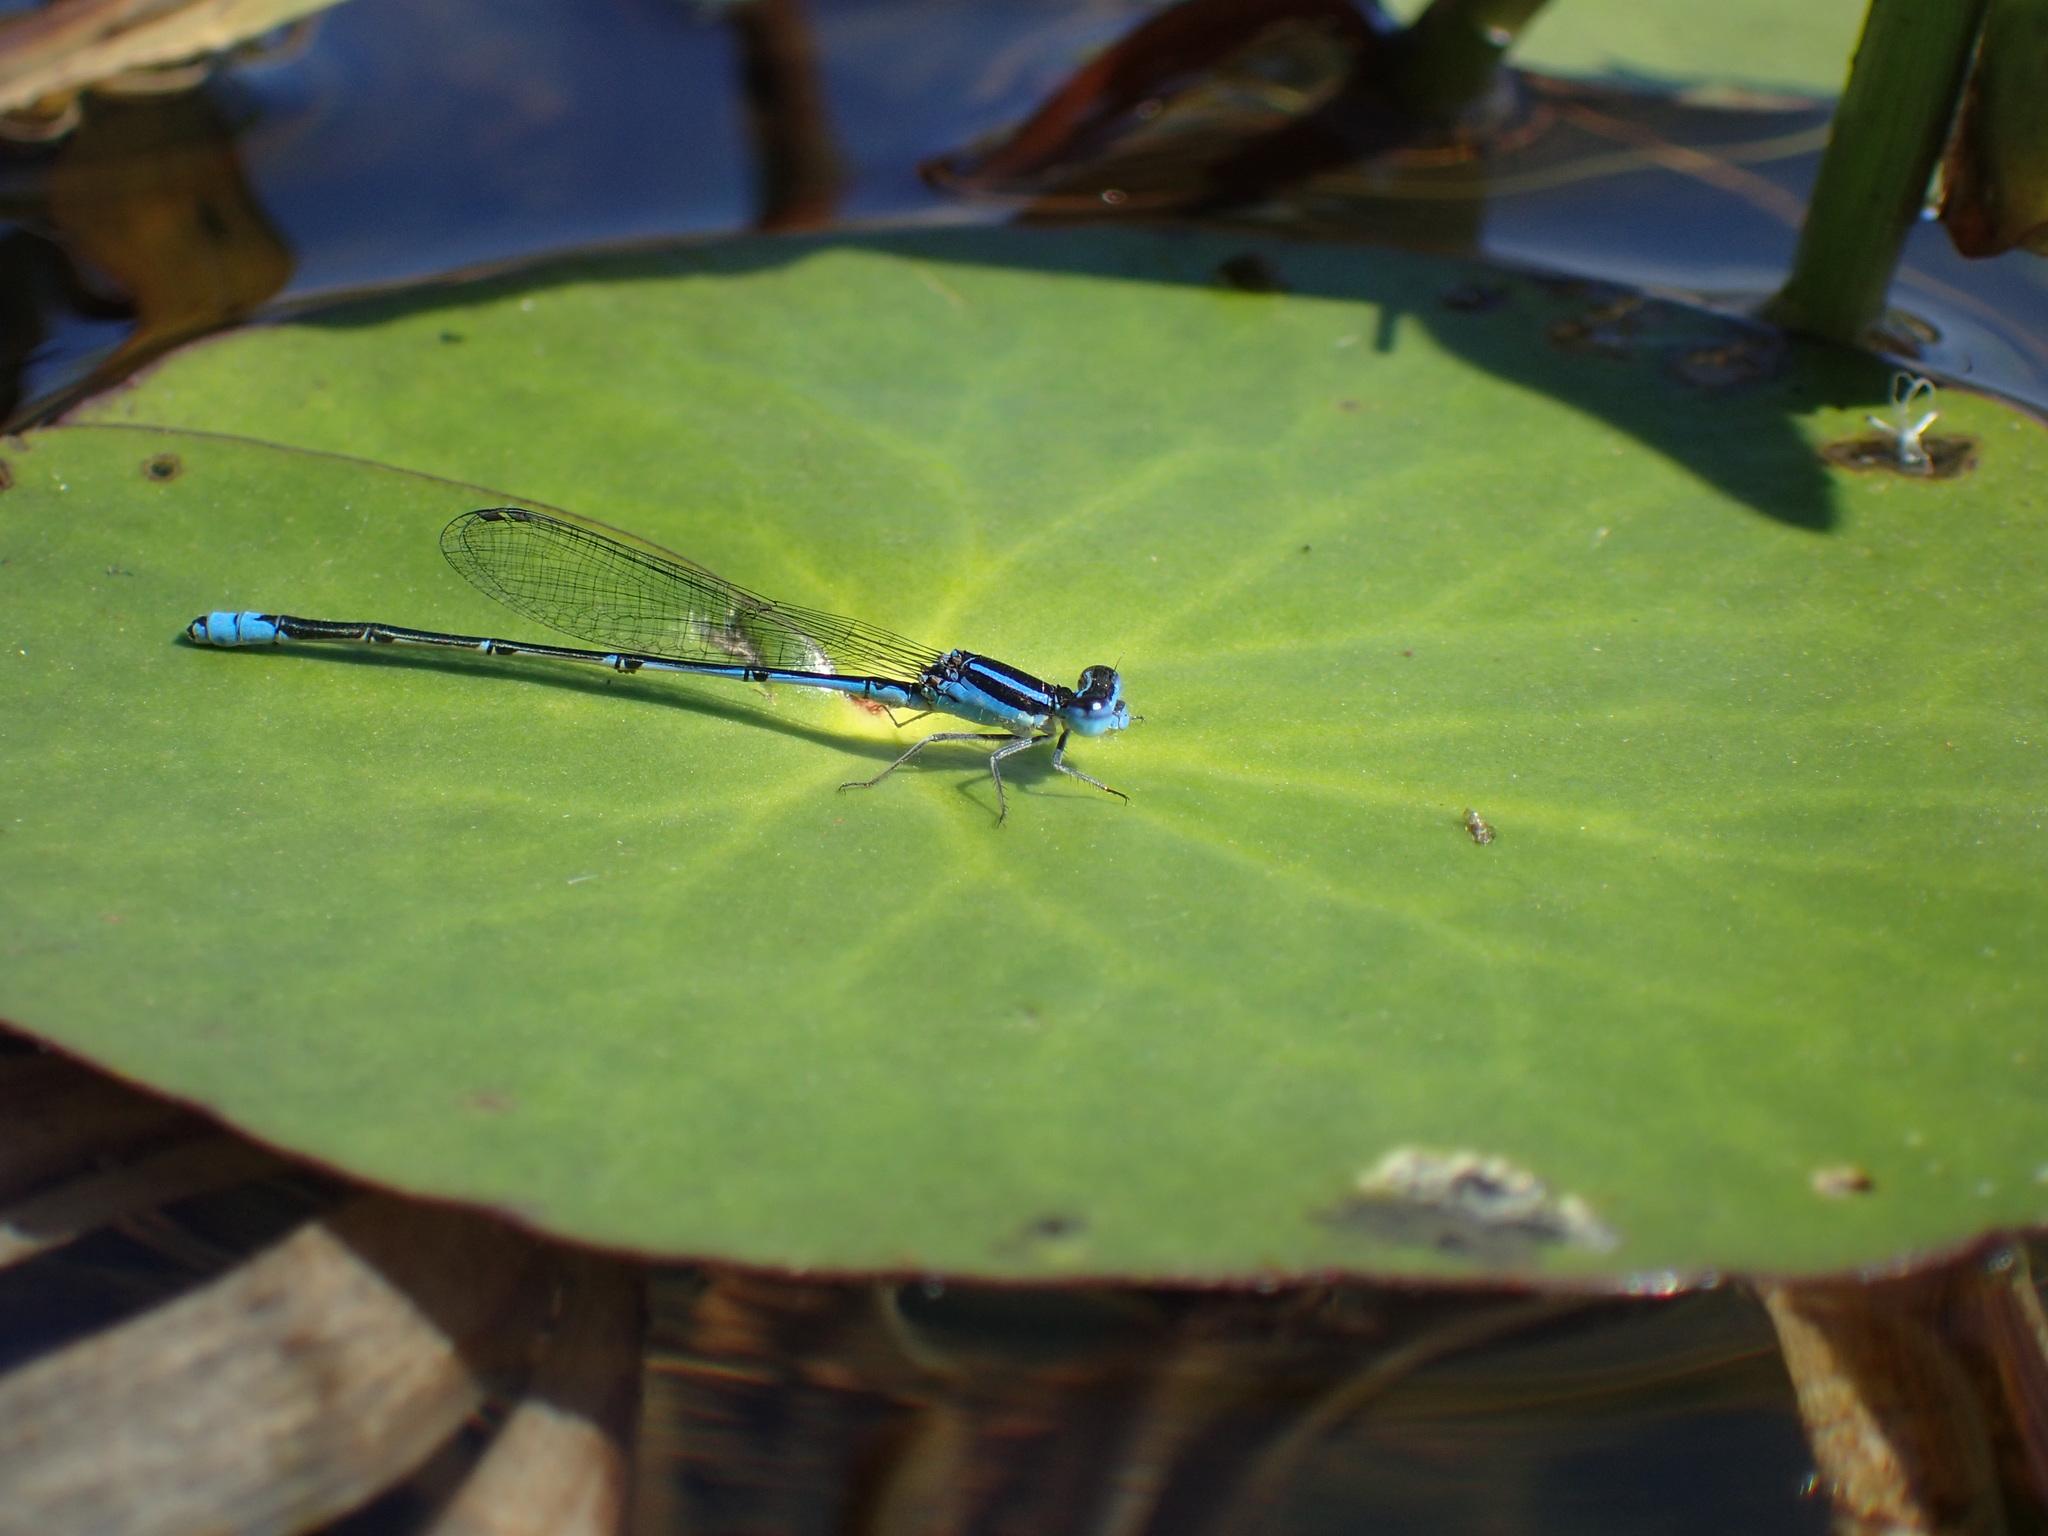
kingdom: Animalia
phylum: Arthropoda
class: Insecta
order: Odonata
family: Coenagrionidae
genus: Azuragrion
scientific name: Azuragrion nigridorsum
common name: Sailing azuret
